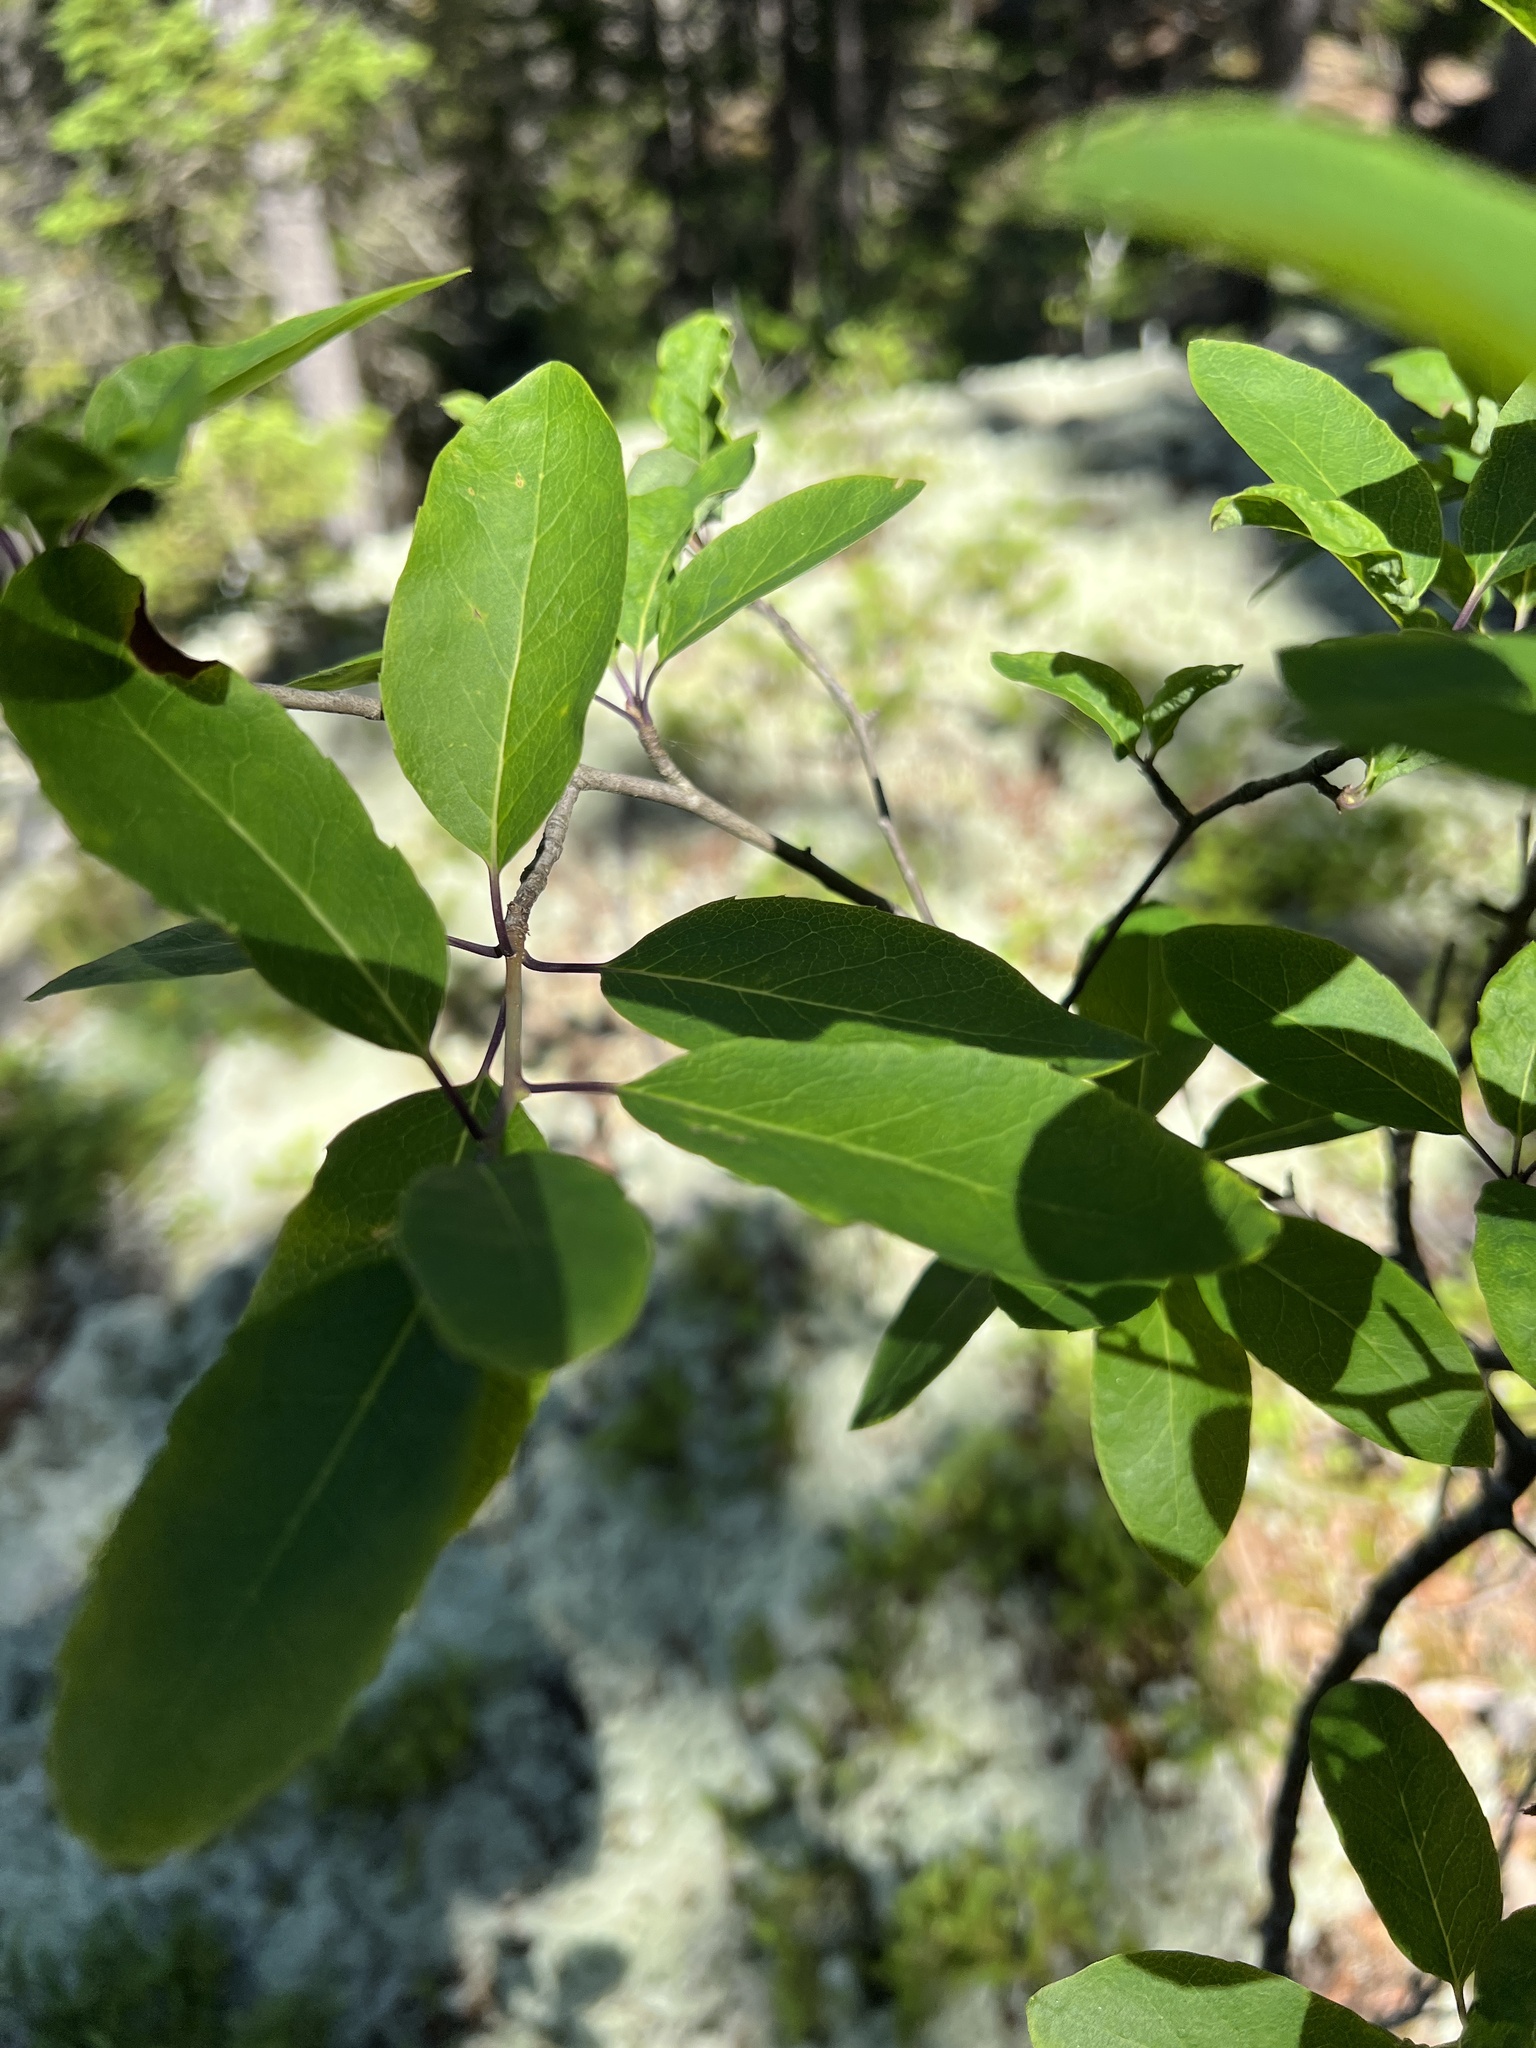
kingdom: Plantae
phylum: Tracheophyta
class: Magnoliopsida
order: Aquifoliales
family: Aquifoliaceae
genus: Ilex
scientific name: Ilex mucronata
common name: Catberry
